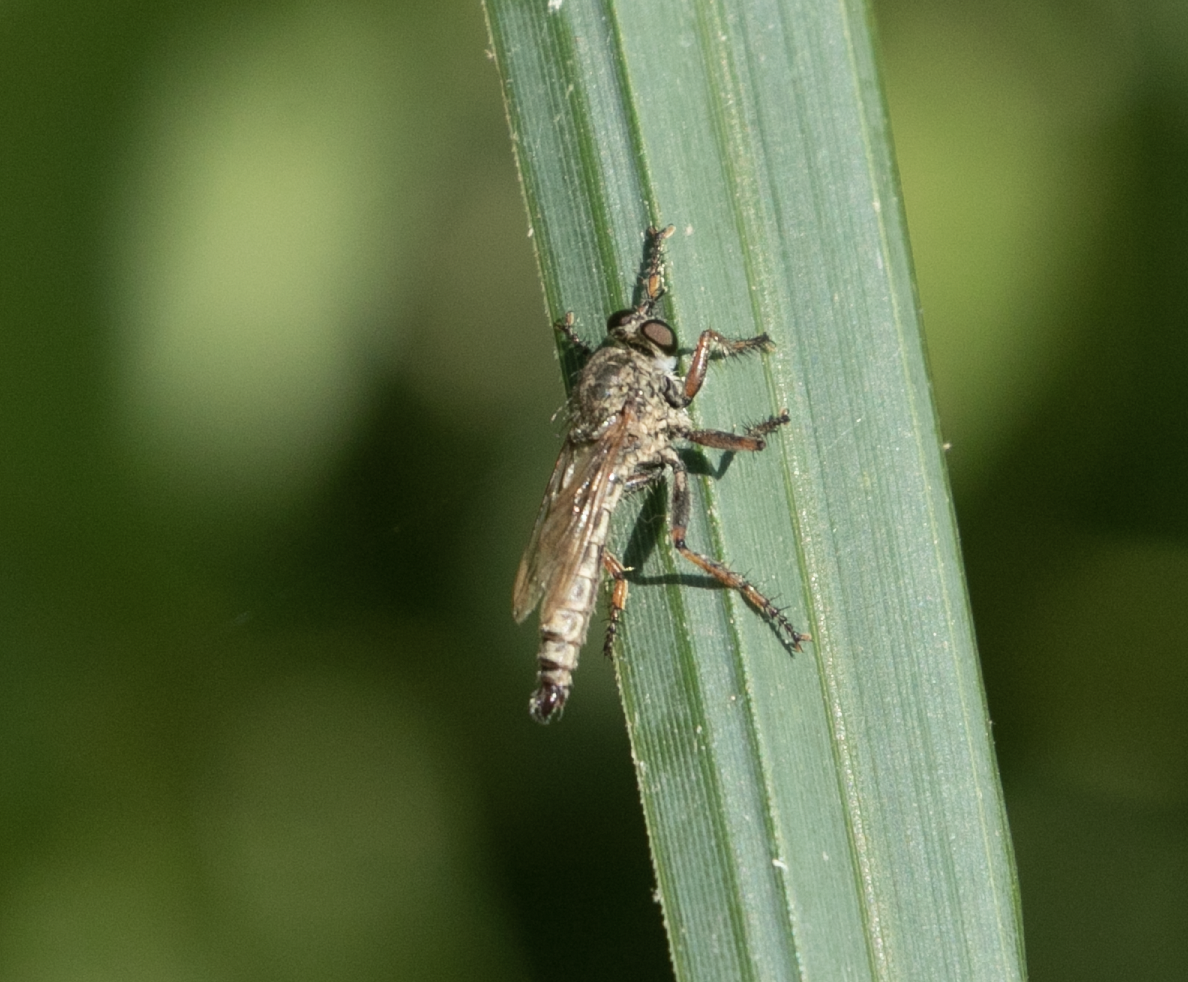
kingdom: Animalia
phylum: Arthropoda
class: Insecta
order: Diptera
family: Asilidae
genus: Epitriptus
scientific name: Epitriptus cingulatus
